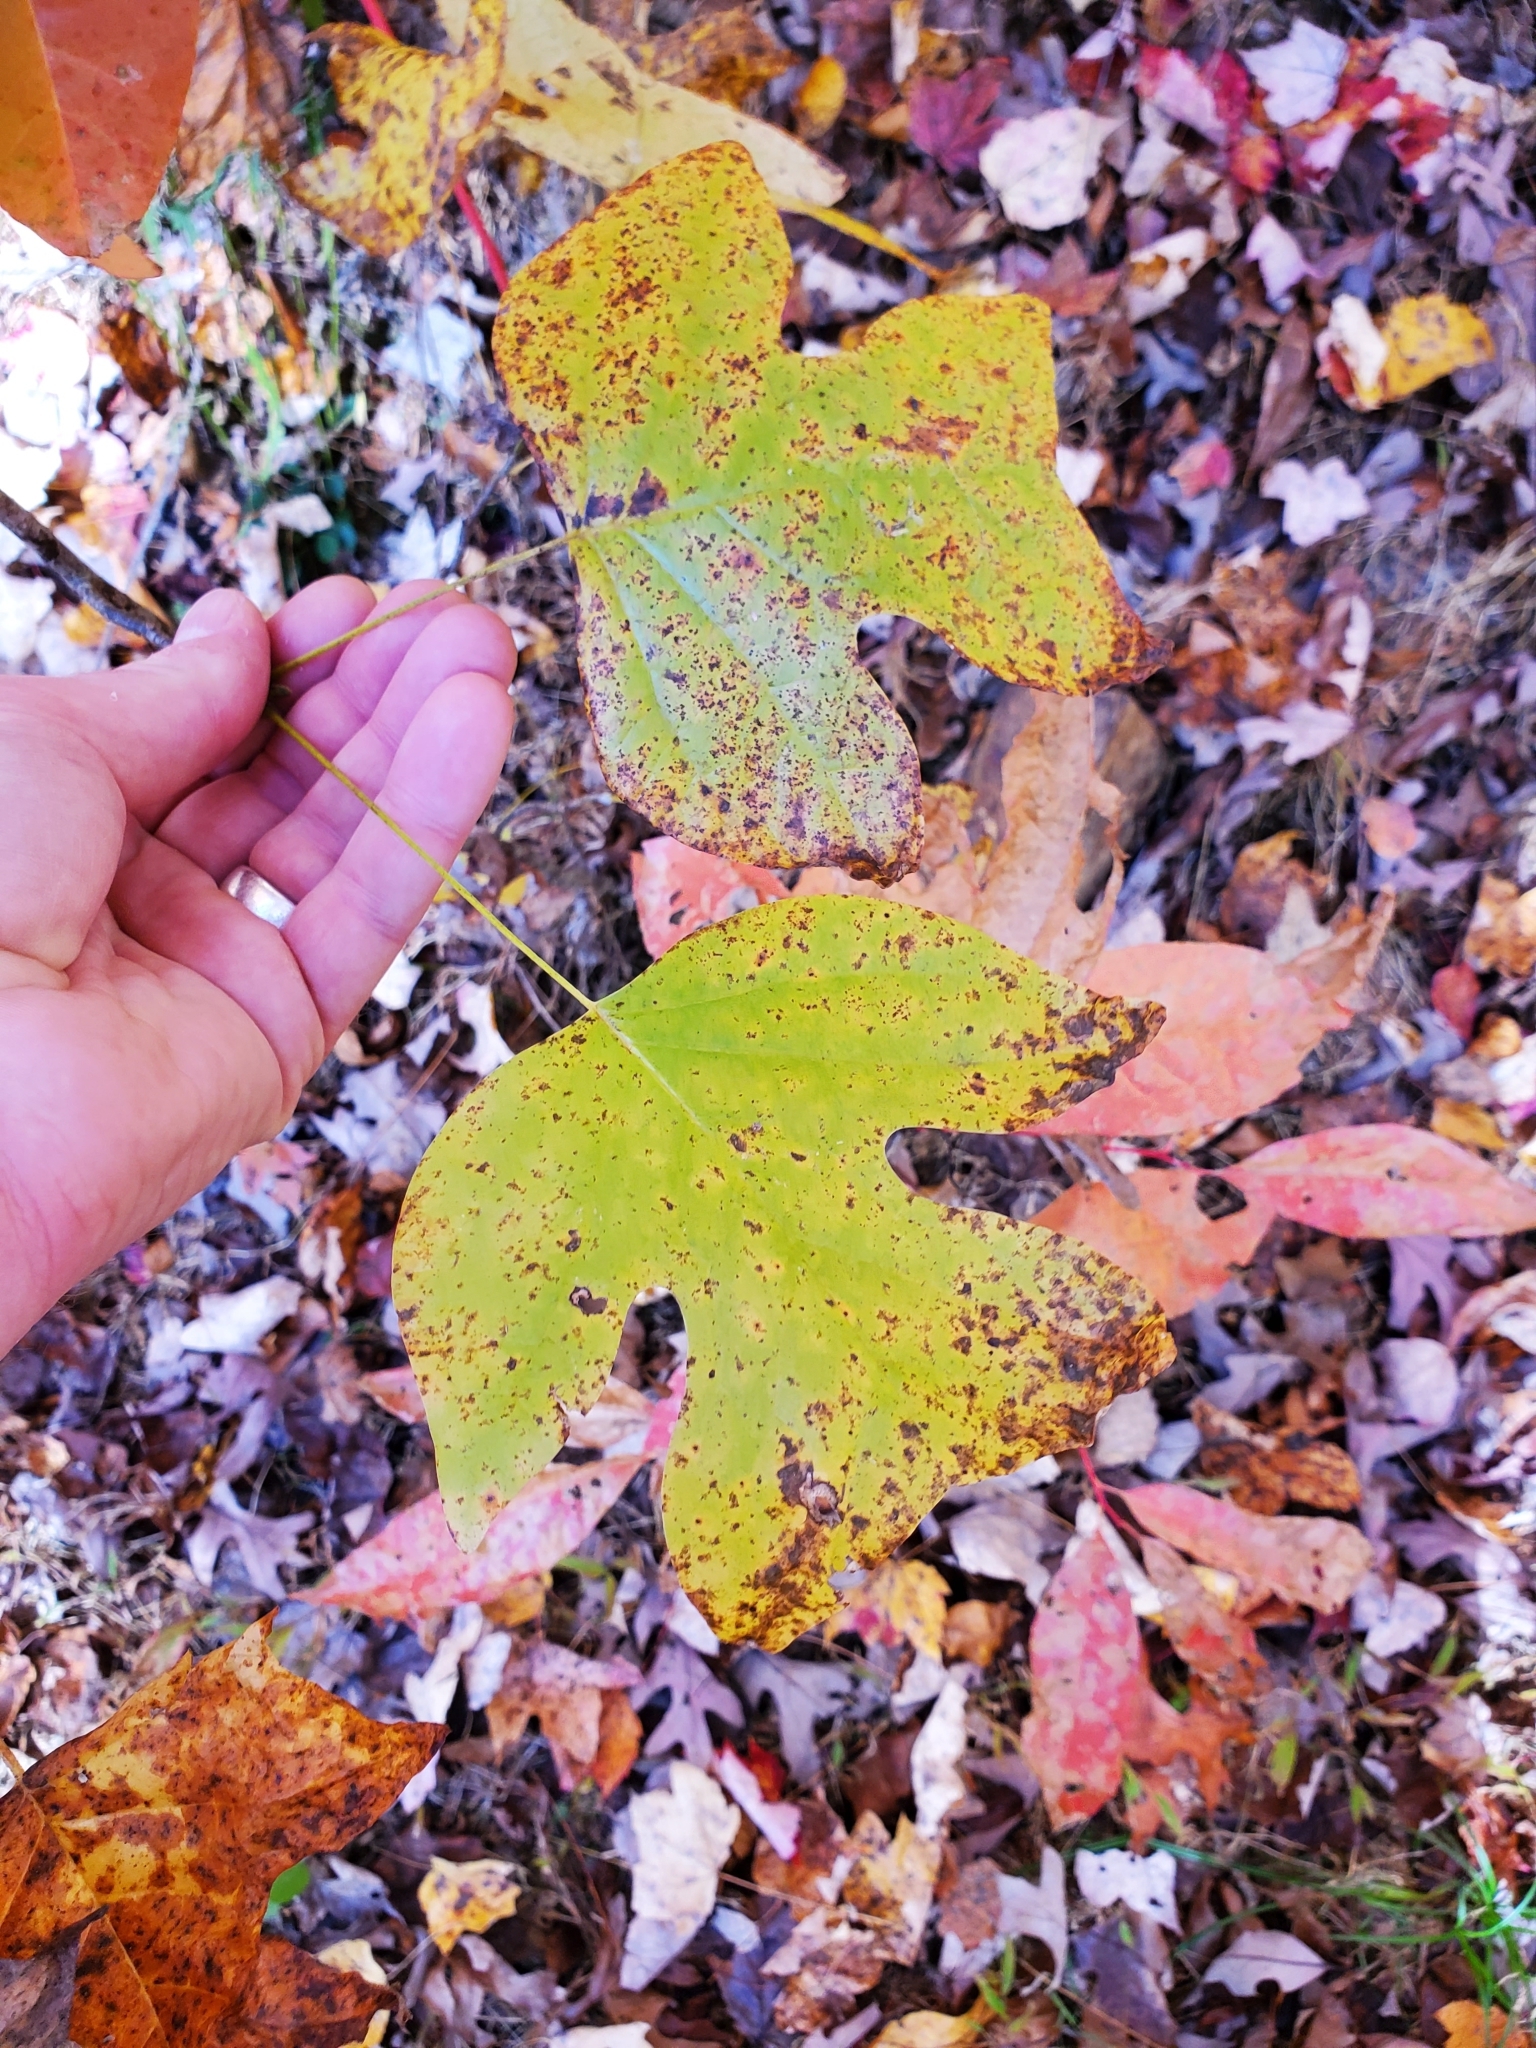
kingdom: Plantae
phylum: Tracheophyta
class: Magnoliopsida
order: Magnoliales
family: Magnoliaceae
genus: Liriodendron
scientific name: Liriodendron tulipifera
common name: Tulip tree
